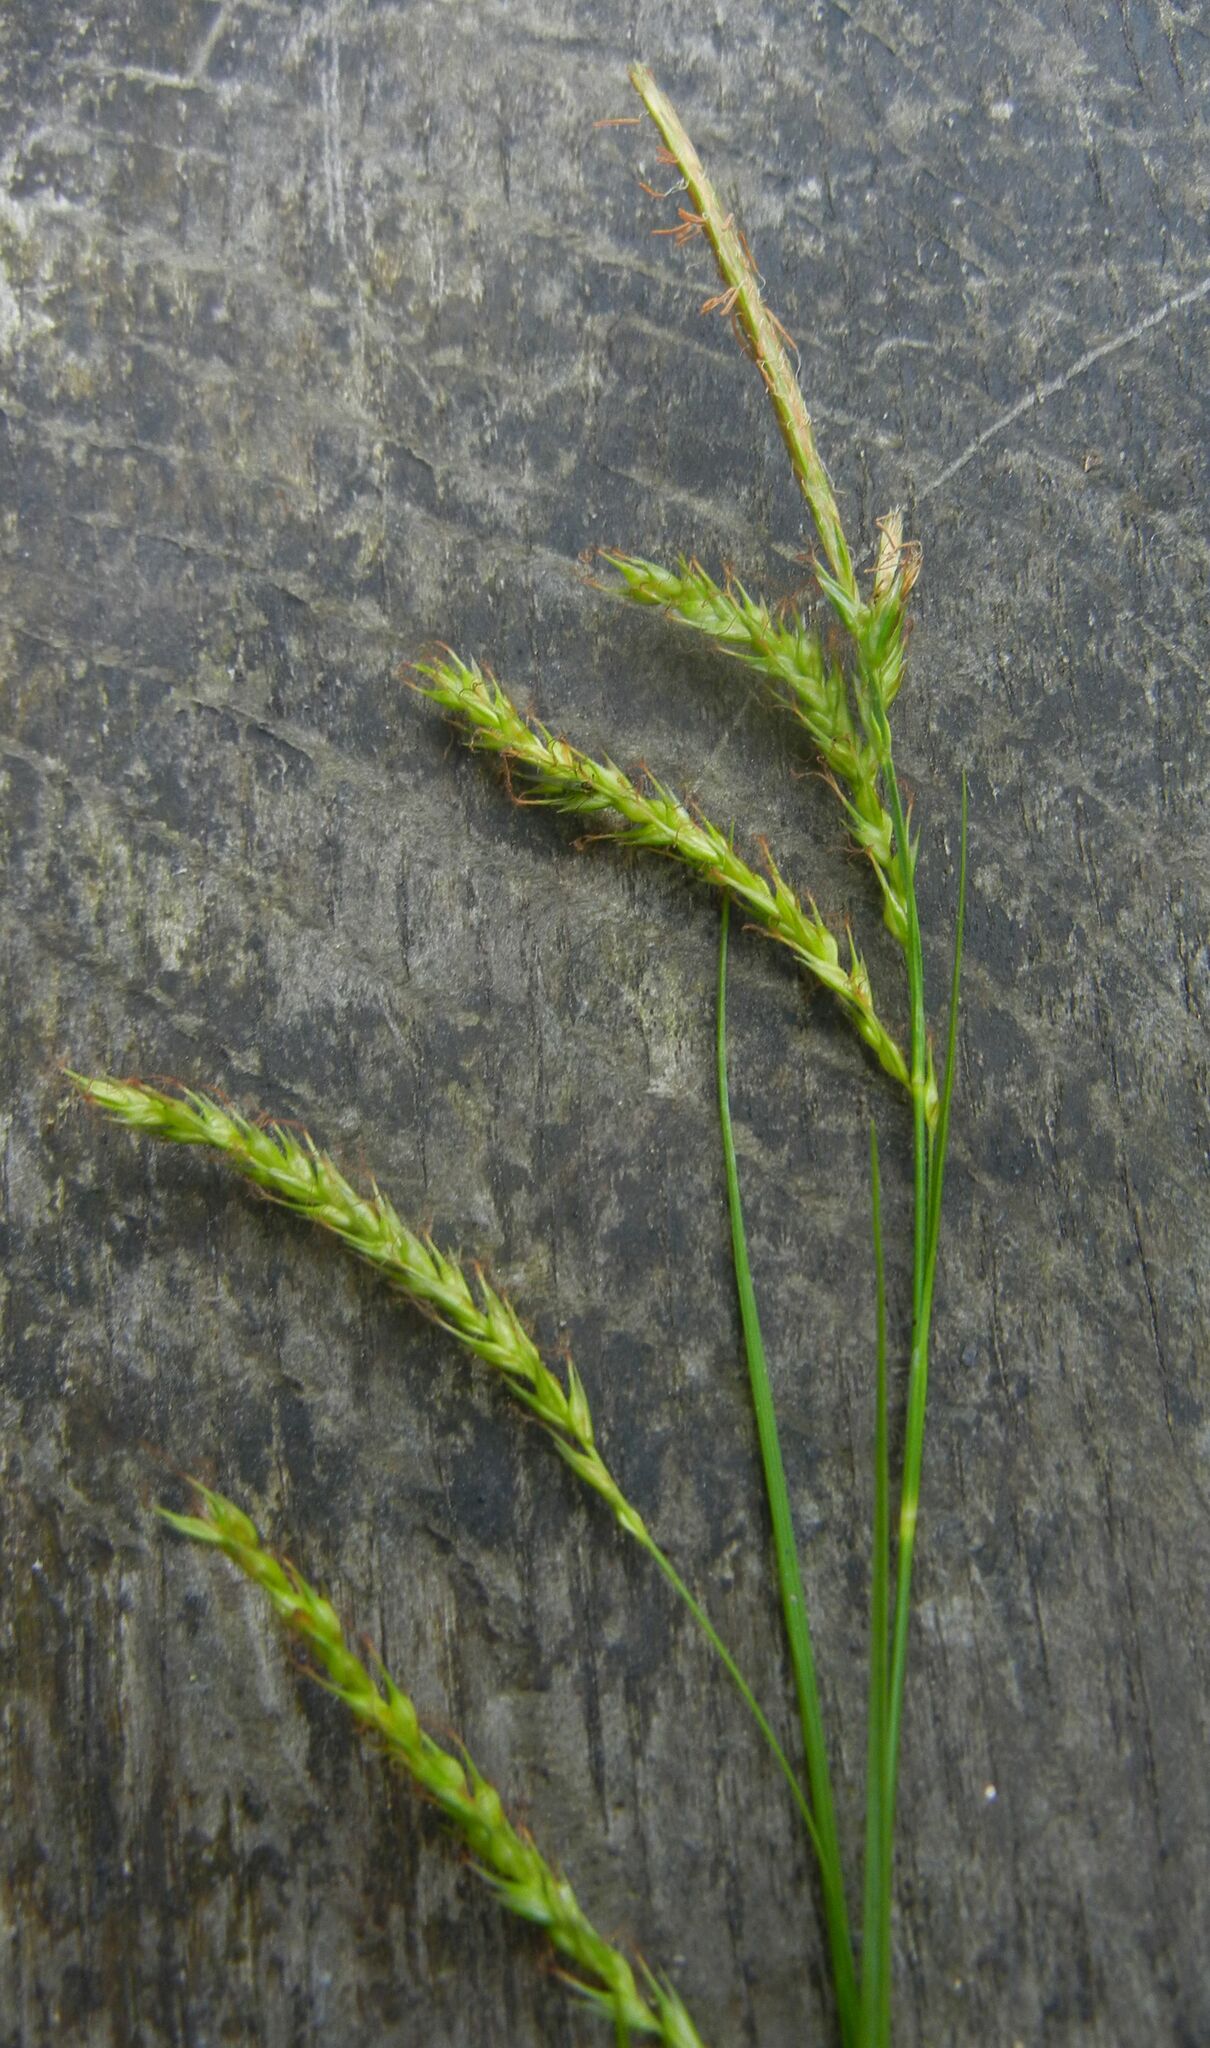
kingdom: Plantae
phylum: Tracheophyta
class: Liliopsida
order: Poales
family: Cyperaceae
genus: Carex
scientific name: Carex sylvatica
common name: Wood-sedge
